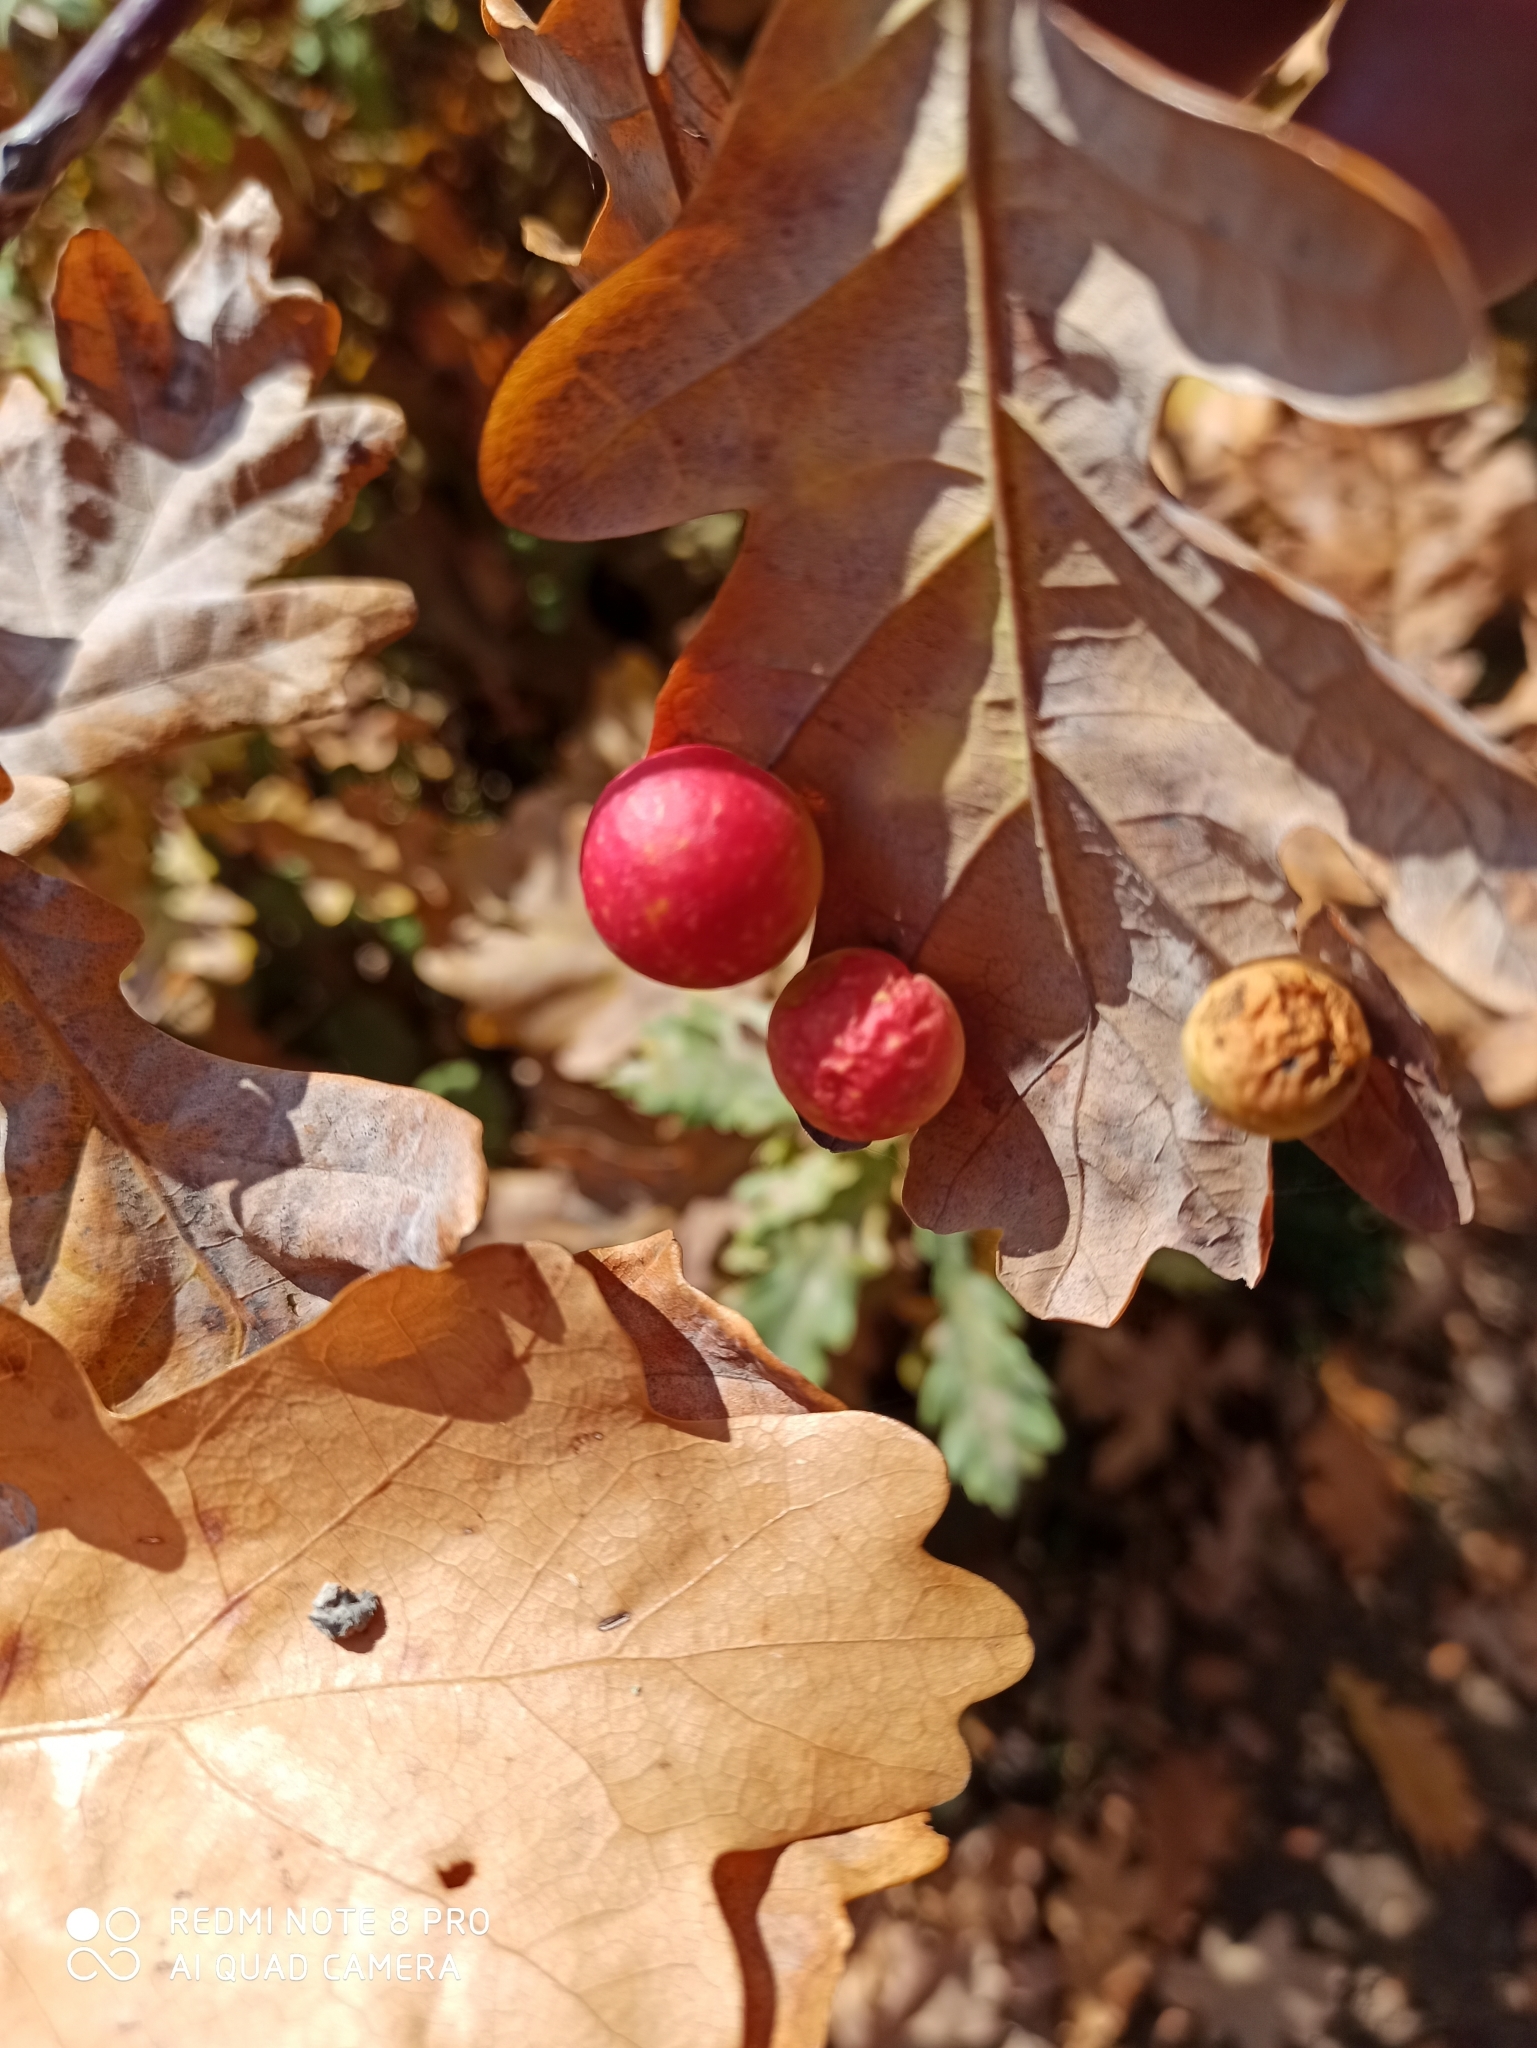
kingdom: Animalia
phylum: Arthropoda
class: Insecta
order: Hymenoptera
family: Cynipidae
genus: Cynips
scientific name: Cynips quercusfolii
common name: Cherry gall
